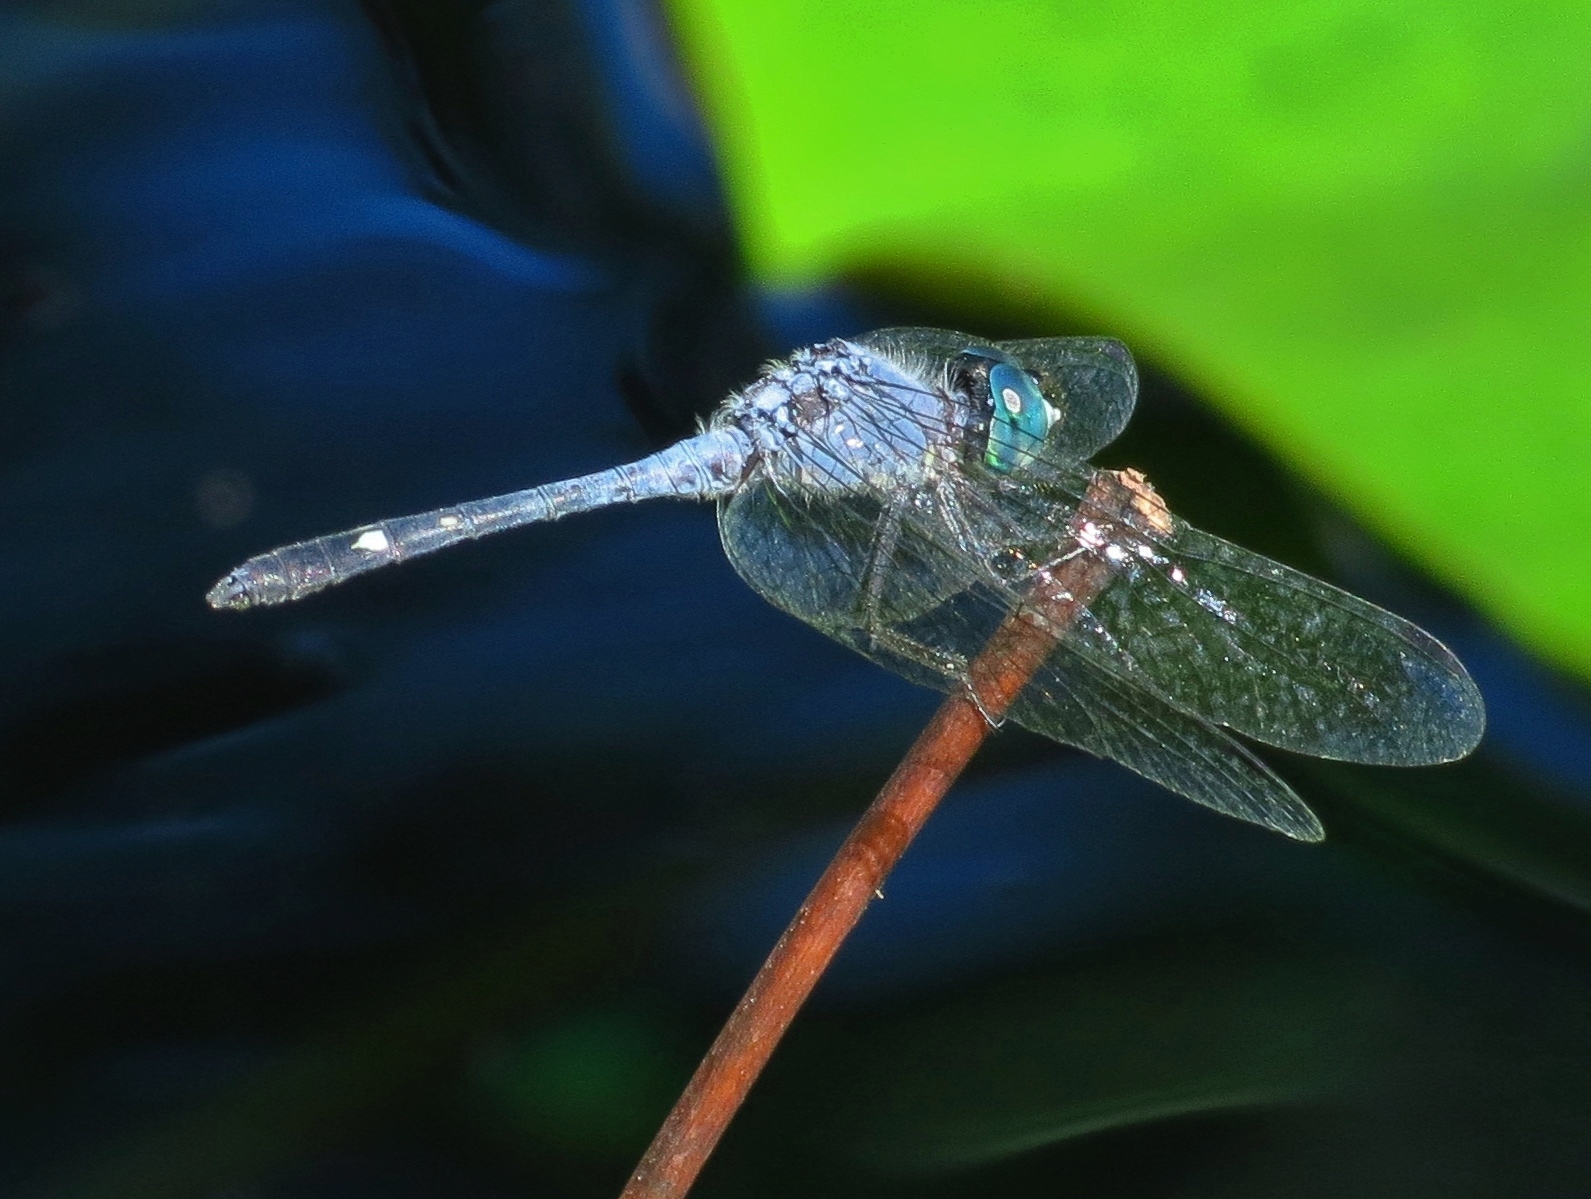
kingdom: Animalia
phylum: Arthropoda
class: Insecta
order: Odonata
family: Libellulidae
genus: Micrathyria
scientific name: Micrathyria aequalis
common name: Spot-tailed dasher
